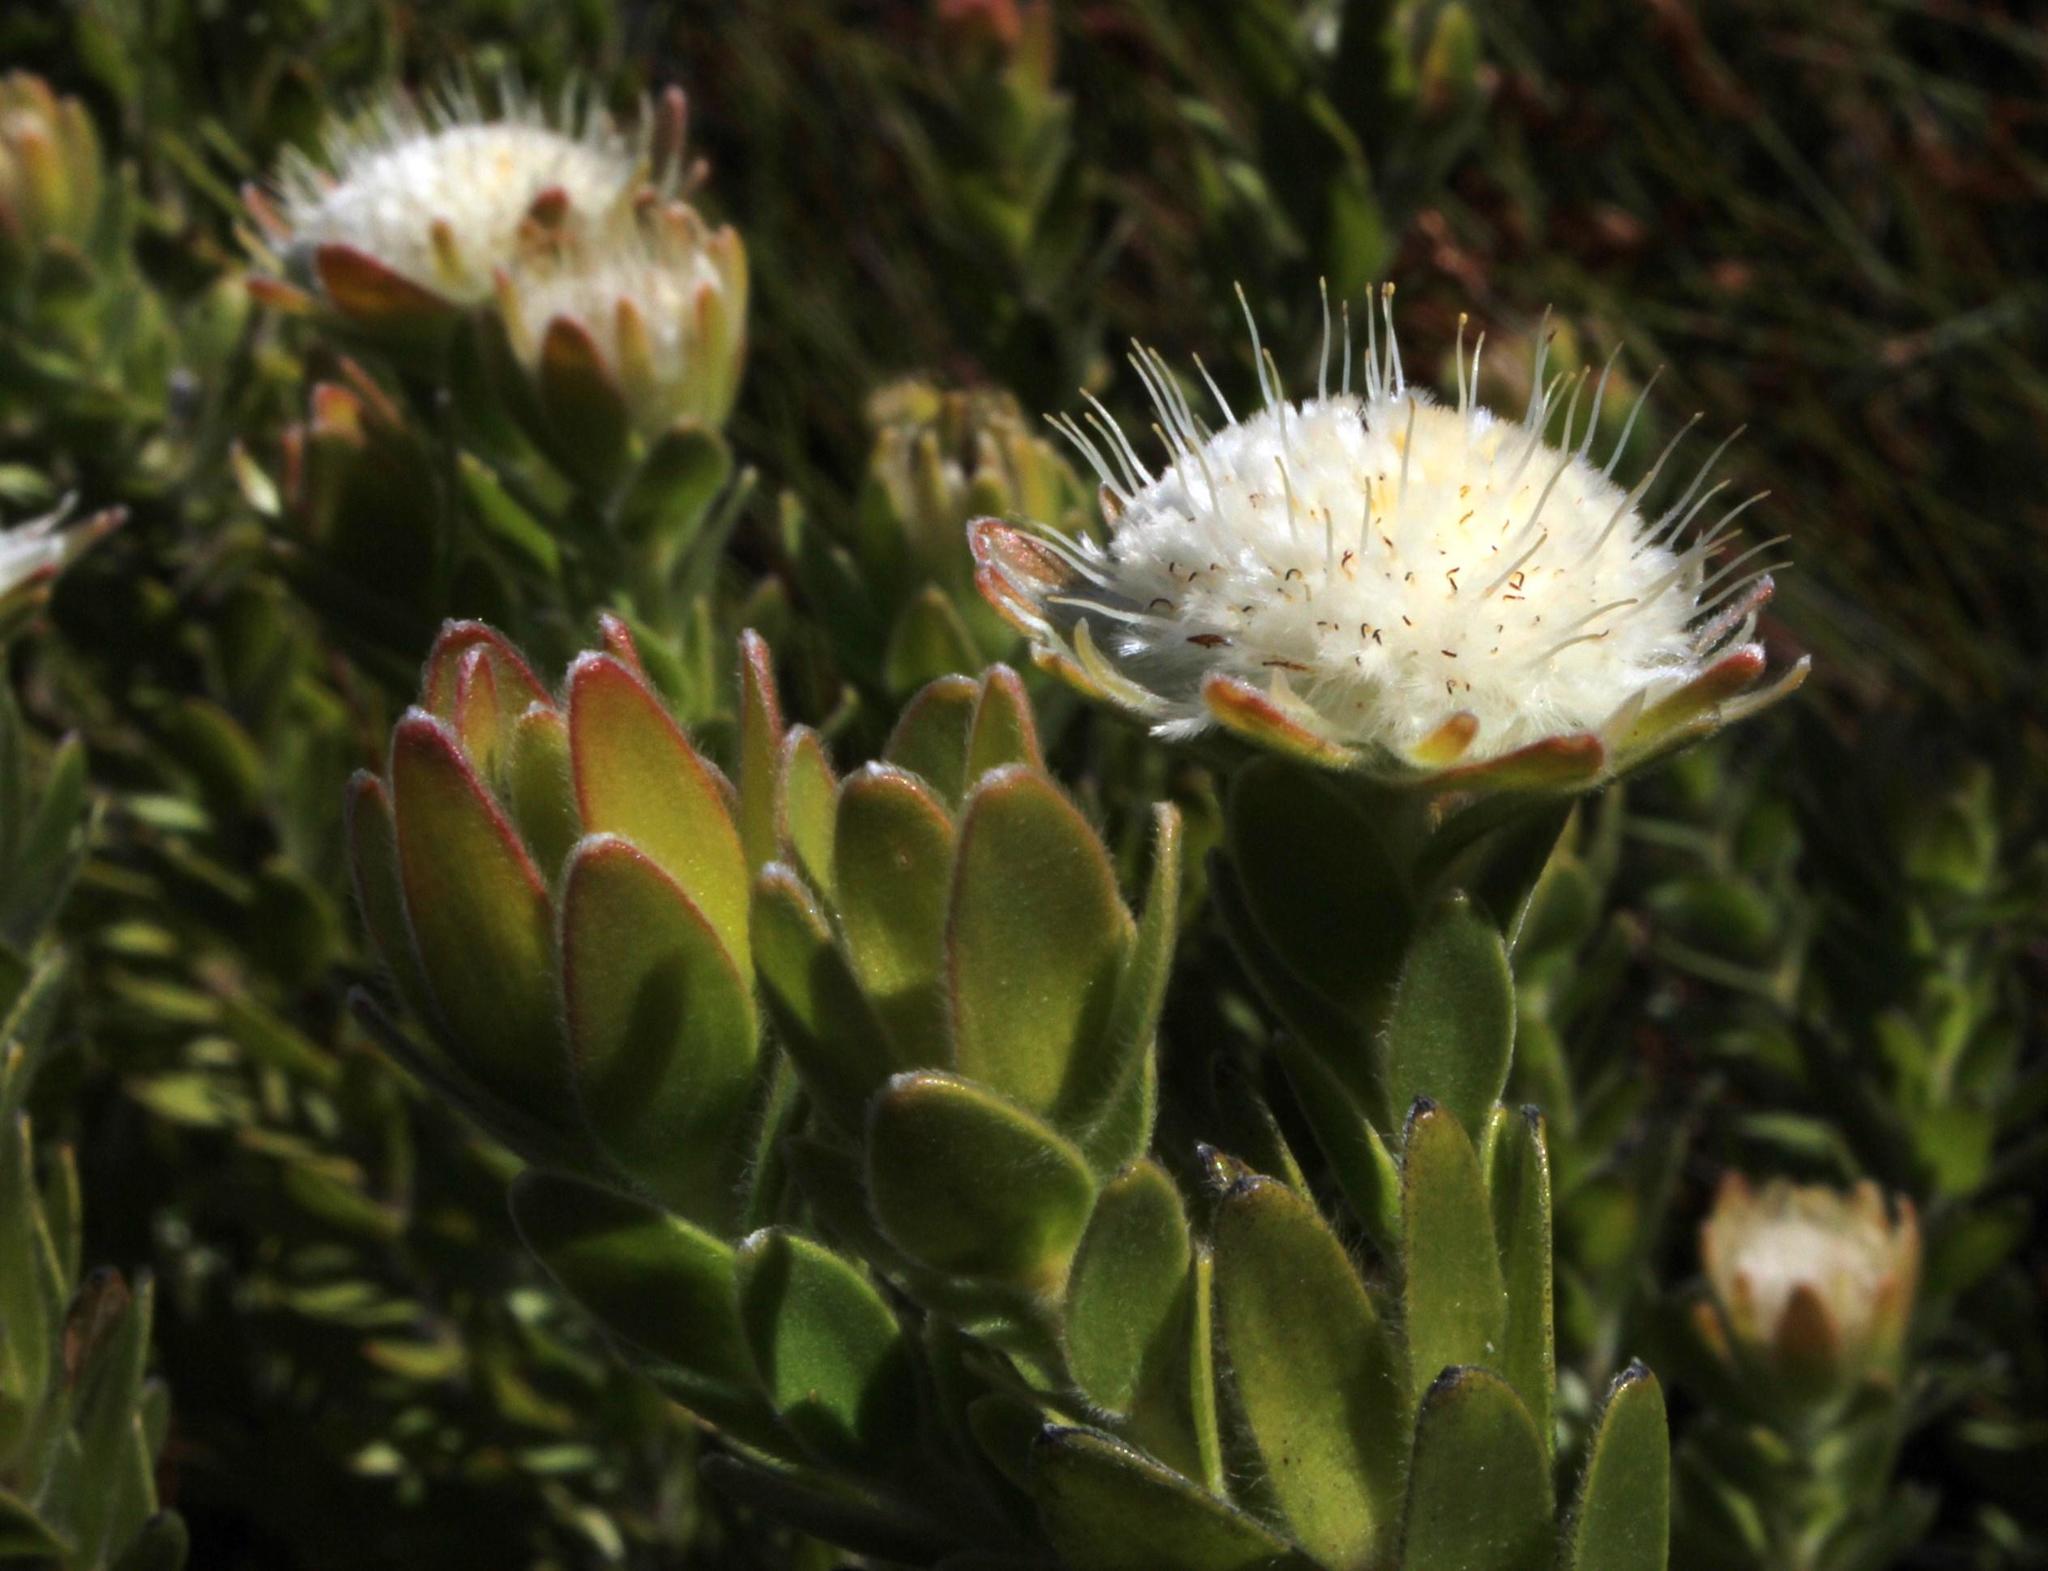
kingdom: Plantae
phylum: Tracheophyta
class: Magnoliopsida
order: Proteales
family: Proteaceae
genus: Diastella
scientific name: Diastella thymelaeoides
